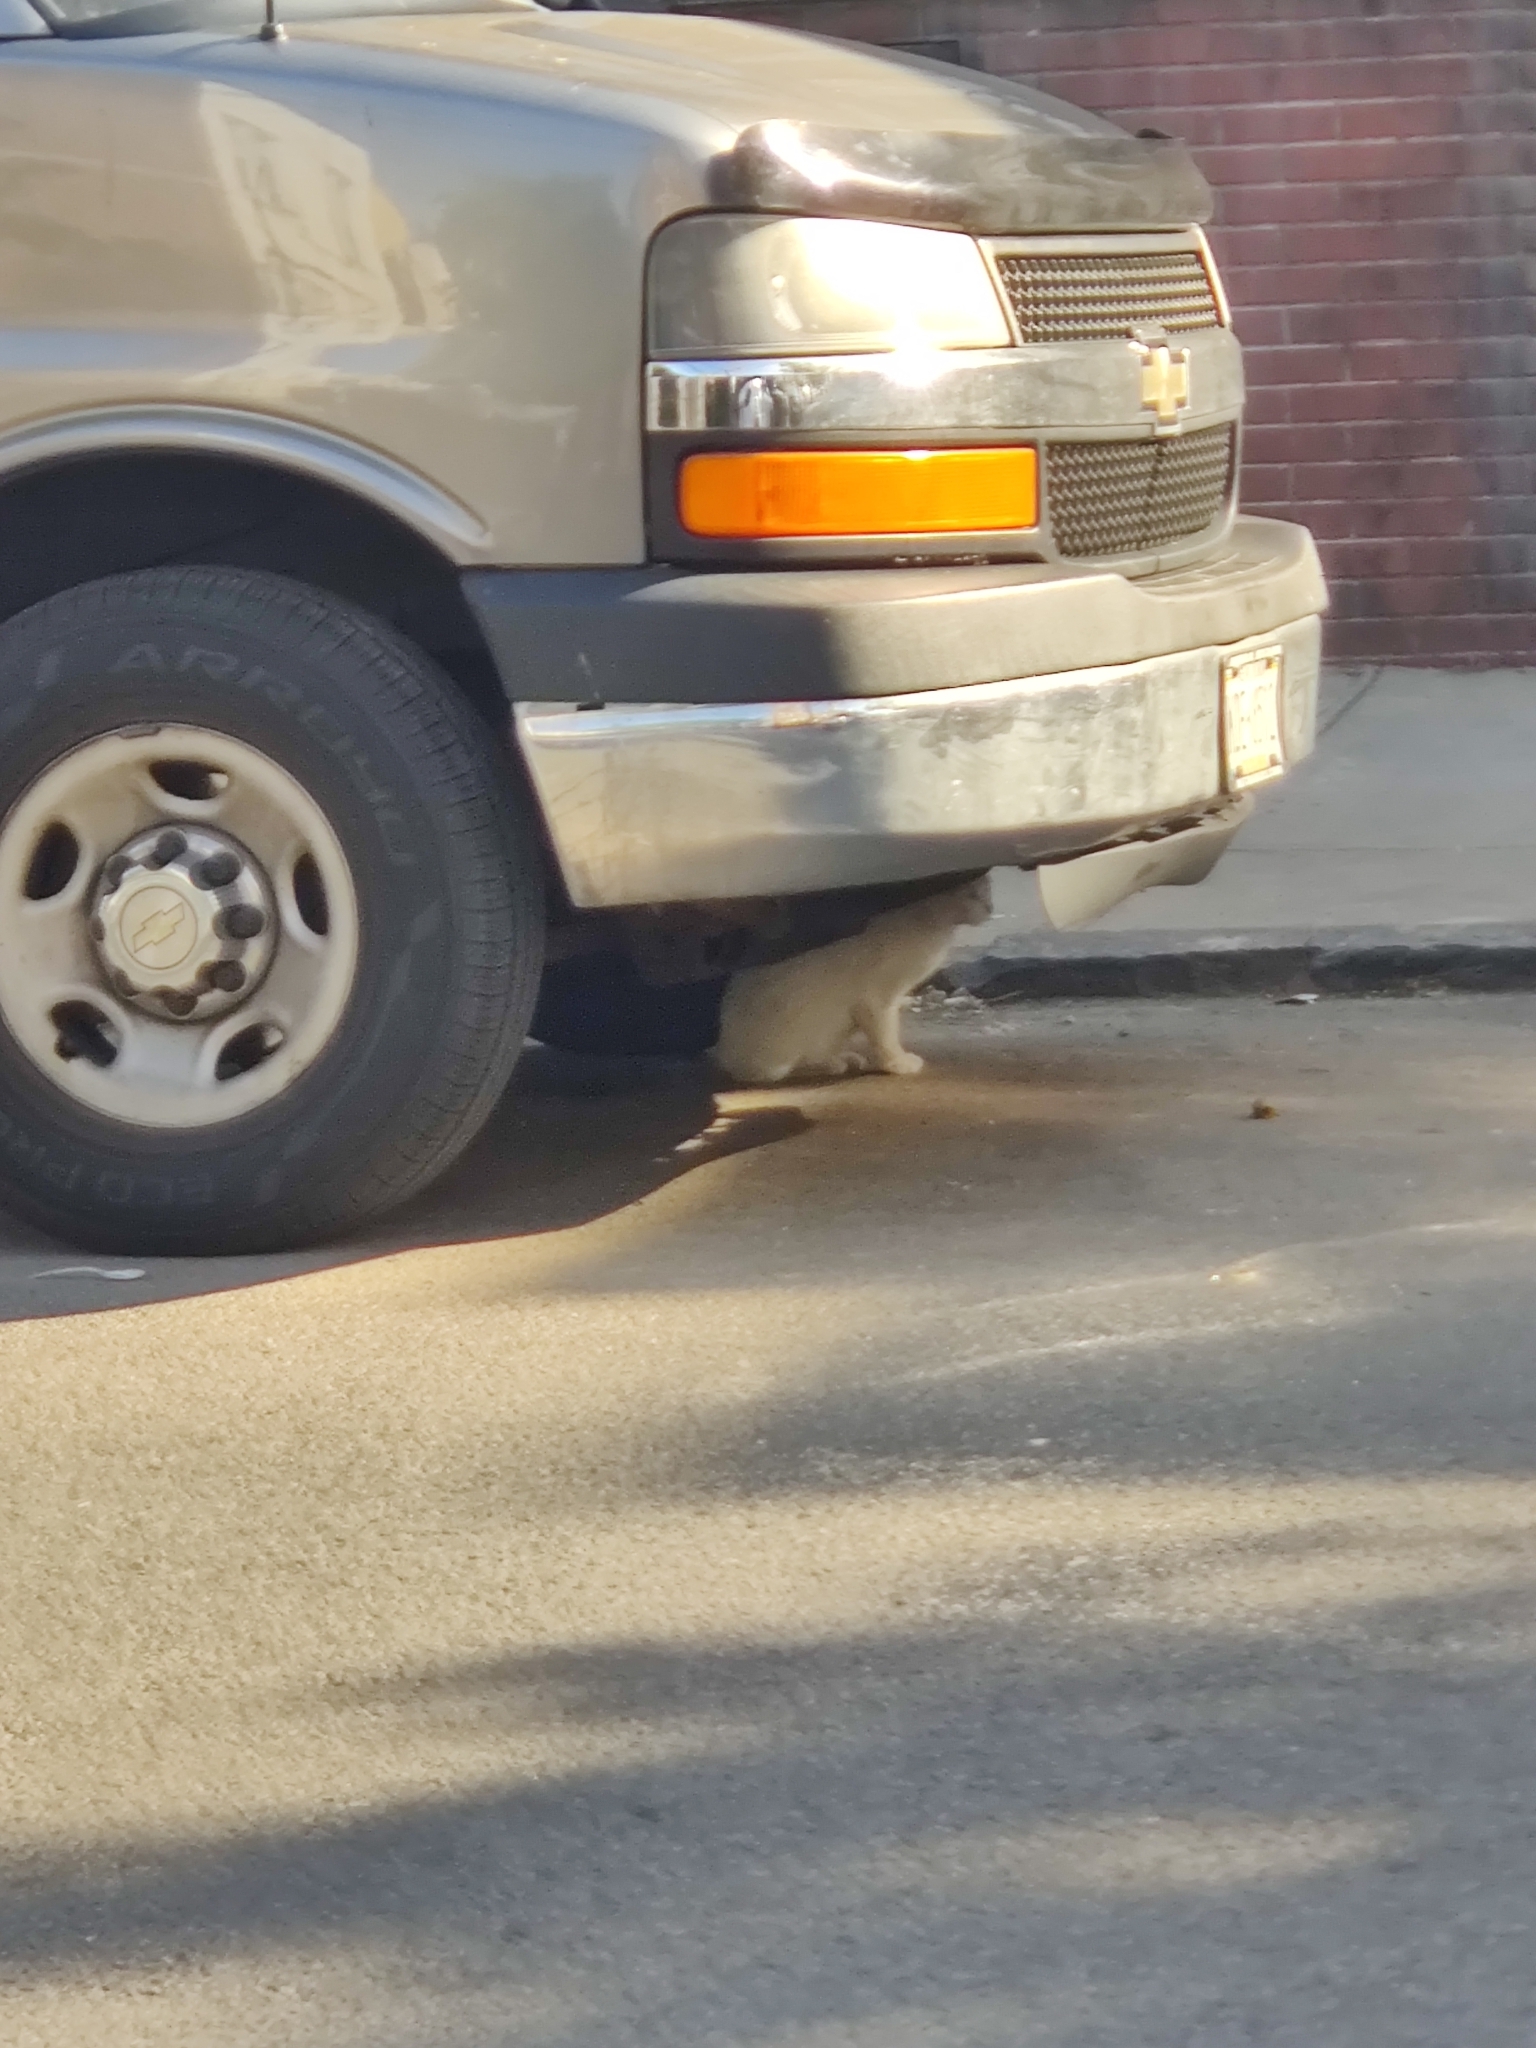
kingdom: Animalia
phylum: Chordata
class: Mammalia
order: Carnivora
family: Felidae
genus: Felis
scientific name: Felis catus
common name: Domestic cat
